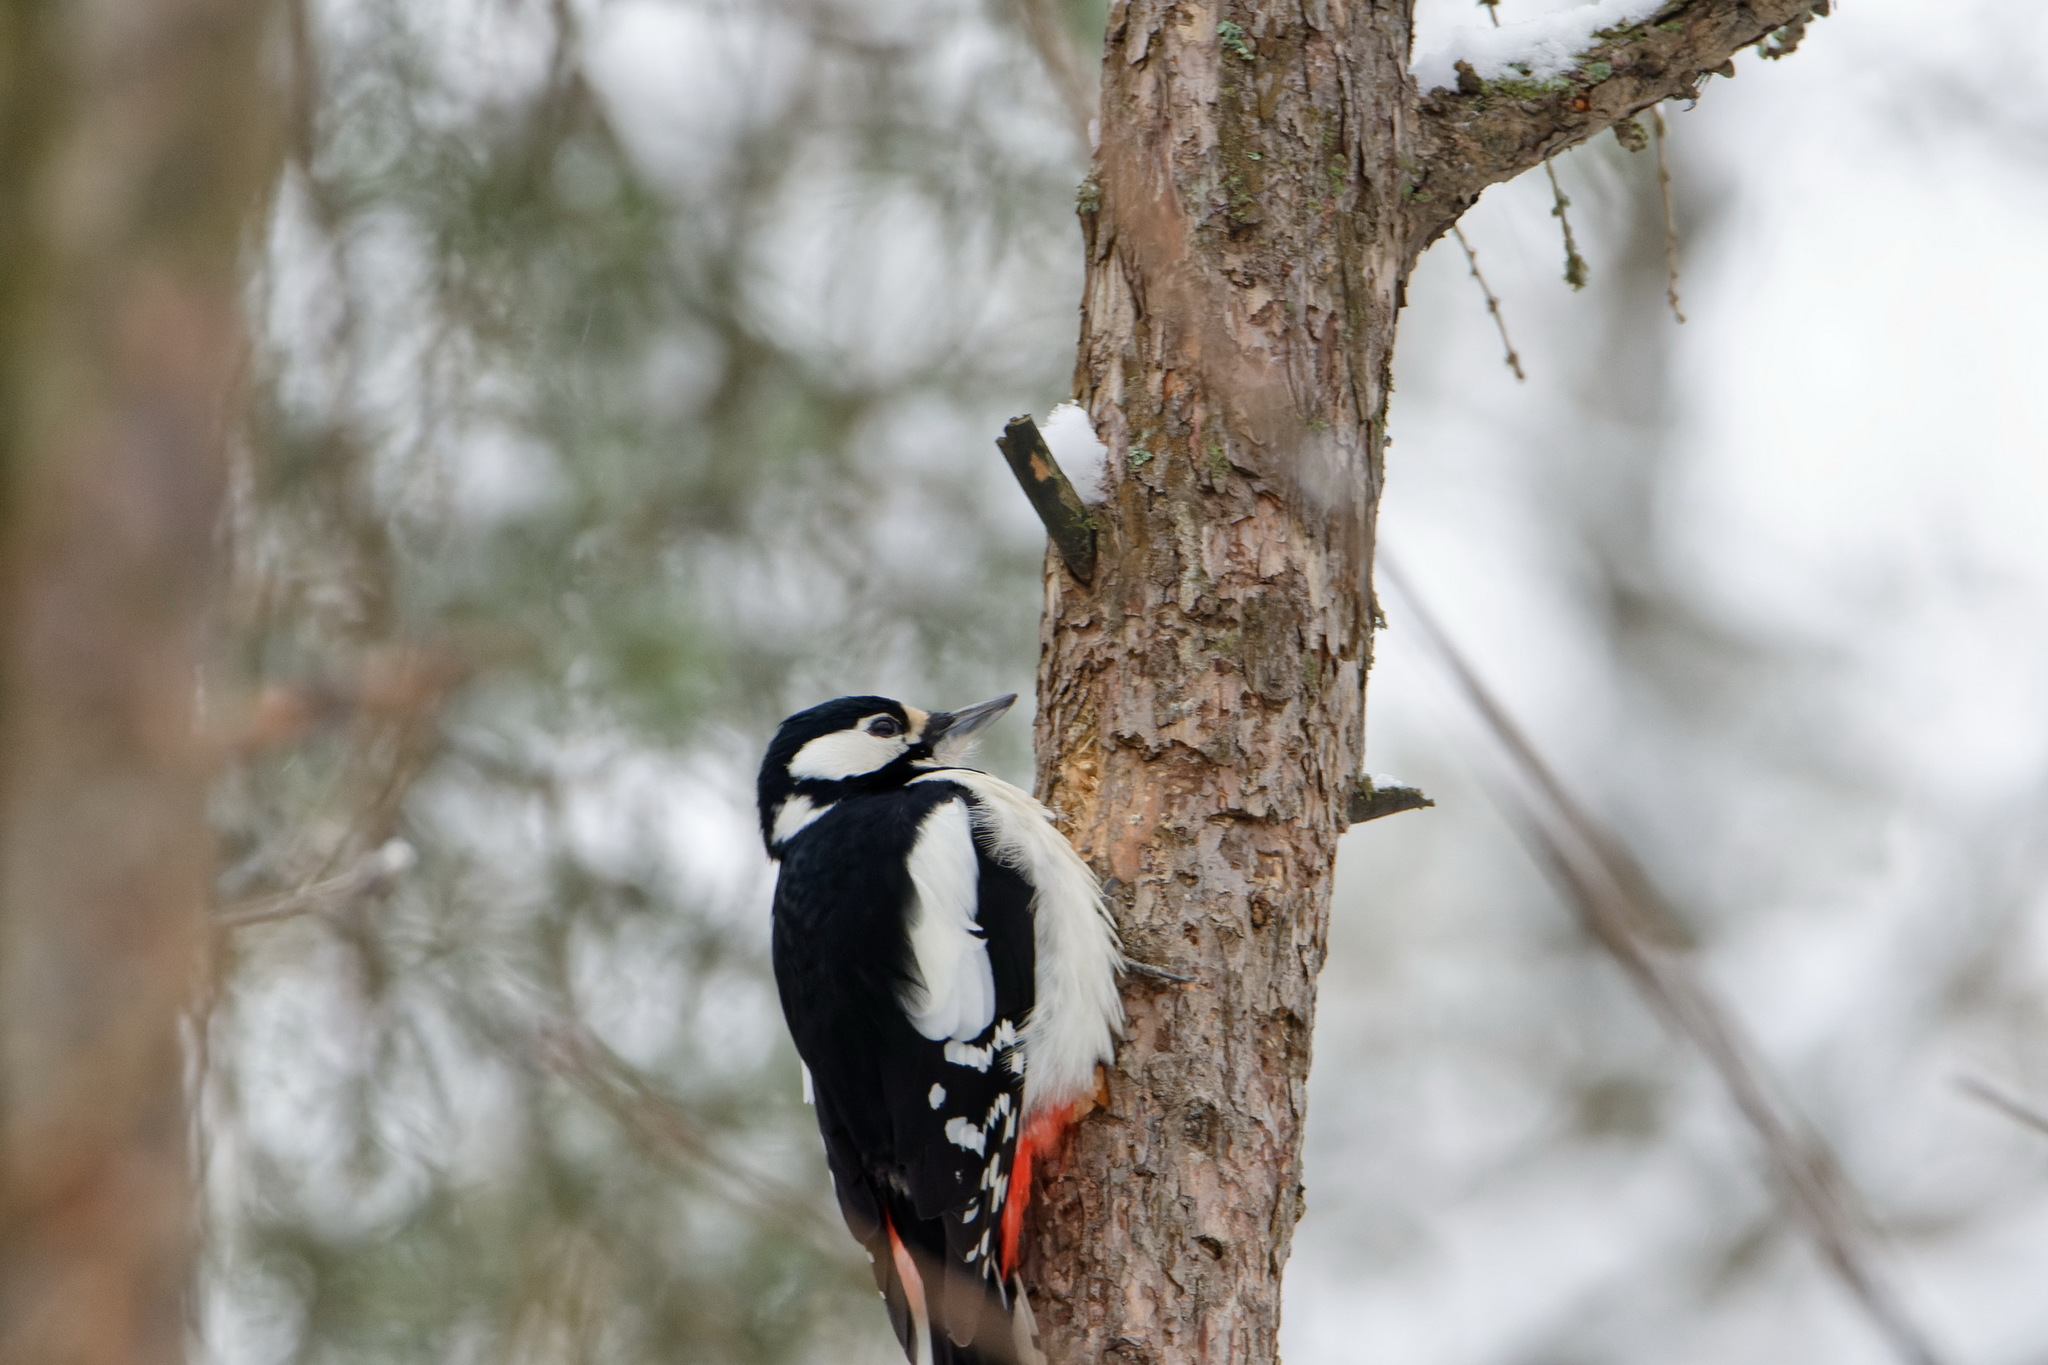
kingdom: Animalia
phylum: Chordata
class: Aves
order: Piciformes
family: Picidae
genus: Dendrocopos
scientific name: Dendrocopos major
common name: Great spotted woodpecker
